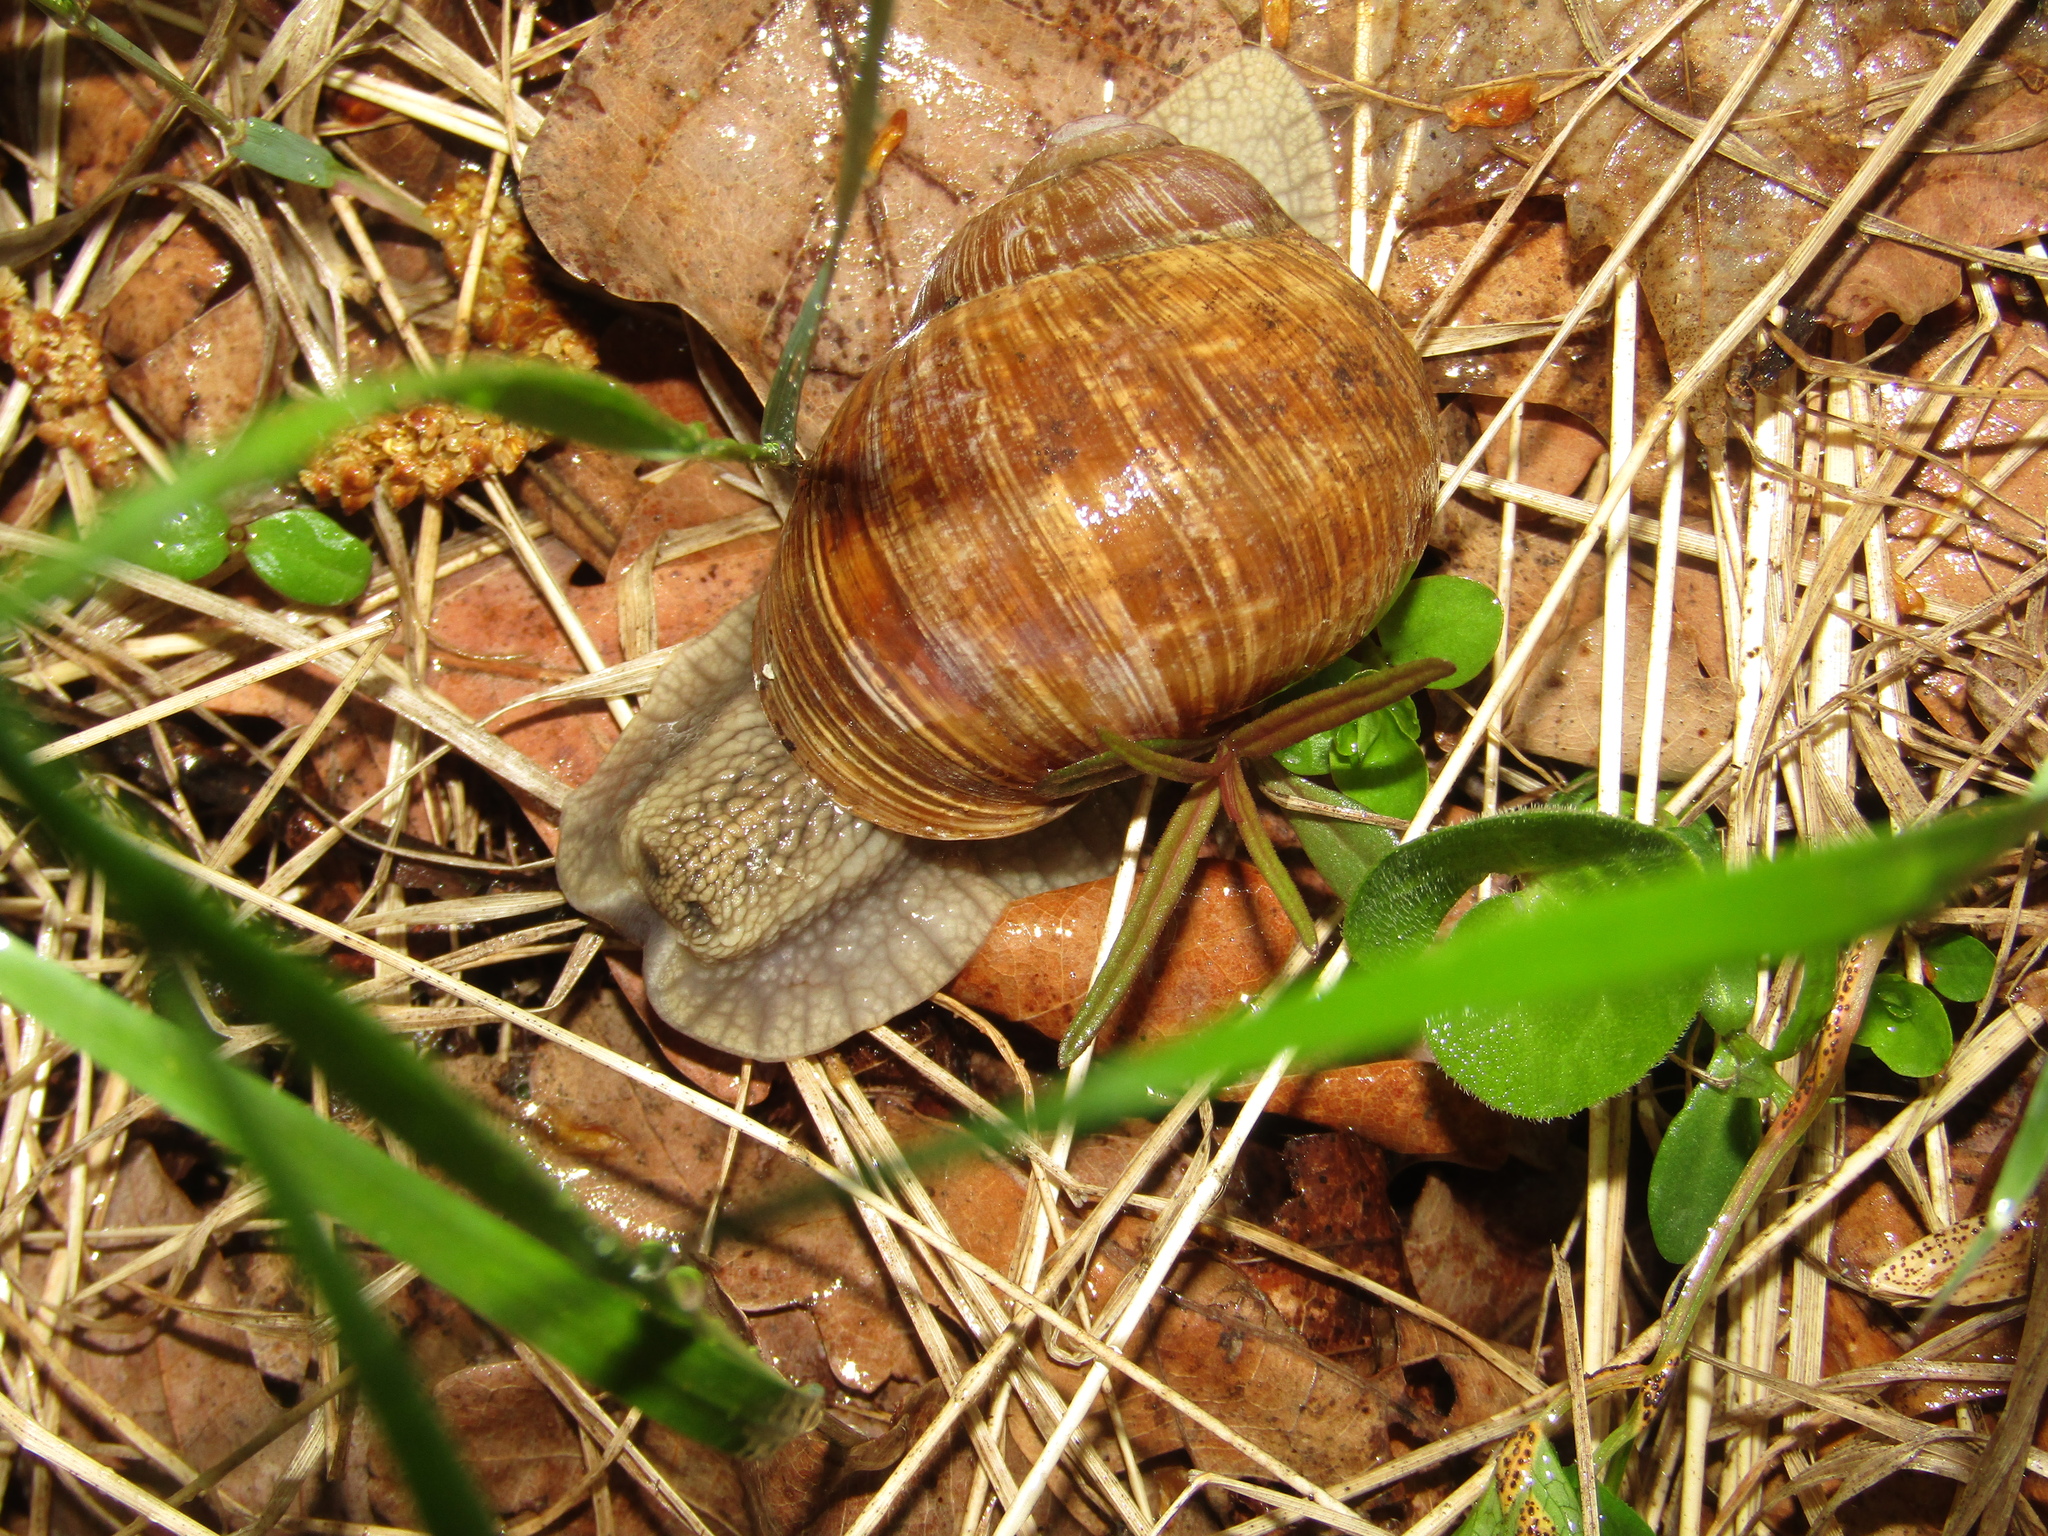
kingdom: Animalia
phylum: Mollusca
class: Gastropoda
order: Stylommatophora
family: Helicidae
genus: Helix
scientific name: Helix pomatia
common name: Roman snail
